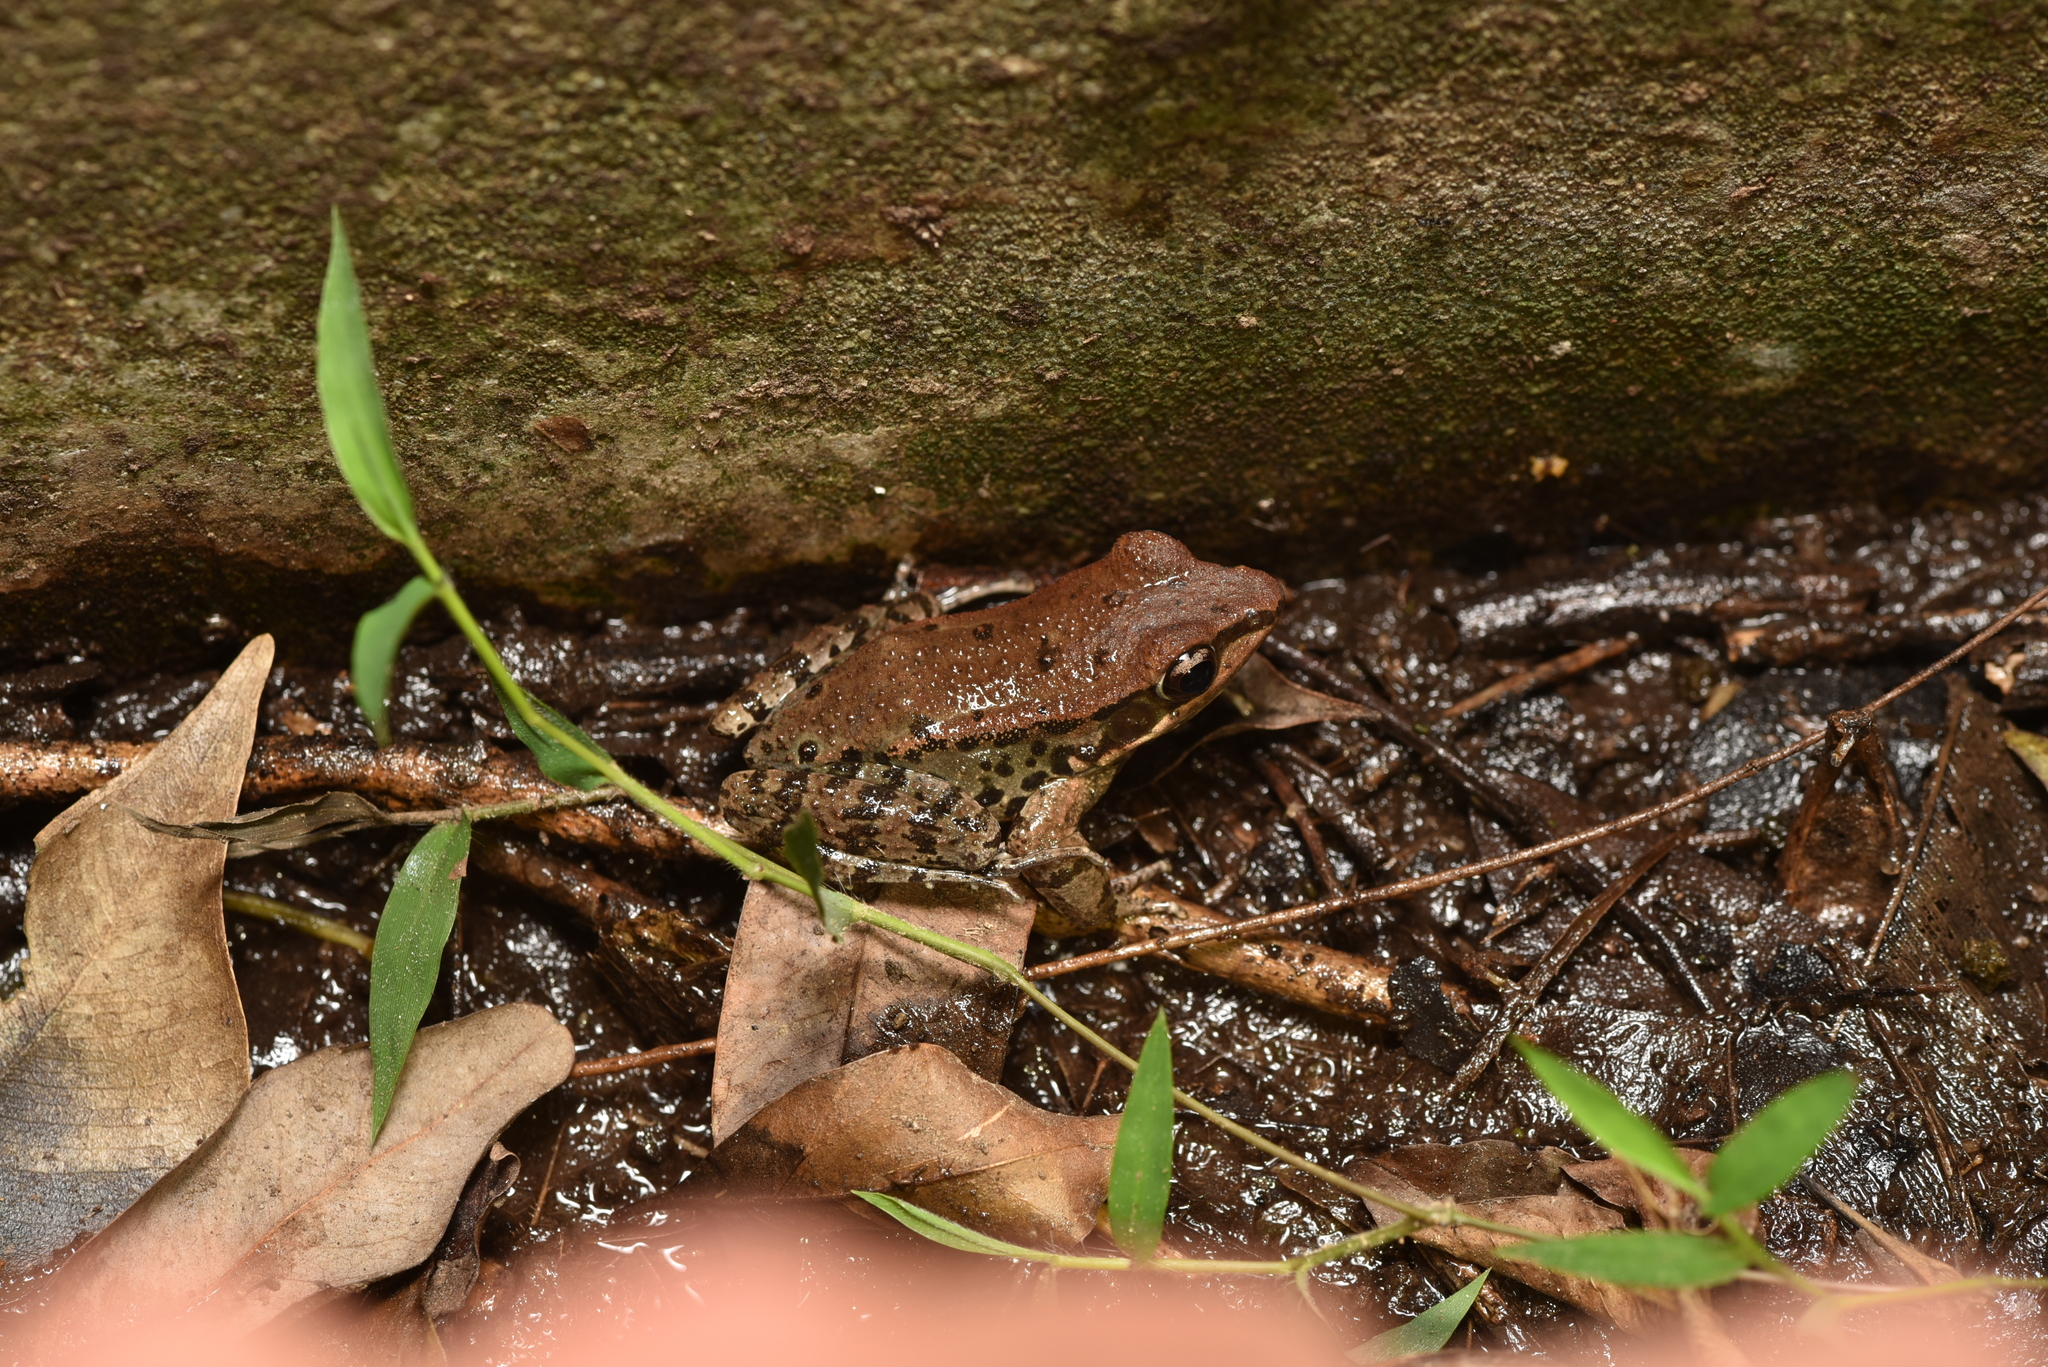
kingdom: Animalia
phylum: Chordata
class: Amphibia
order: Anura
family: Ranidae
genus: Hylarana
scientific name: Hylarana latouchii
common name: Broad-folded frog
